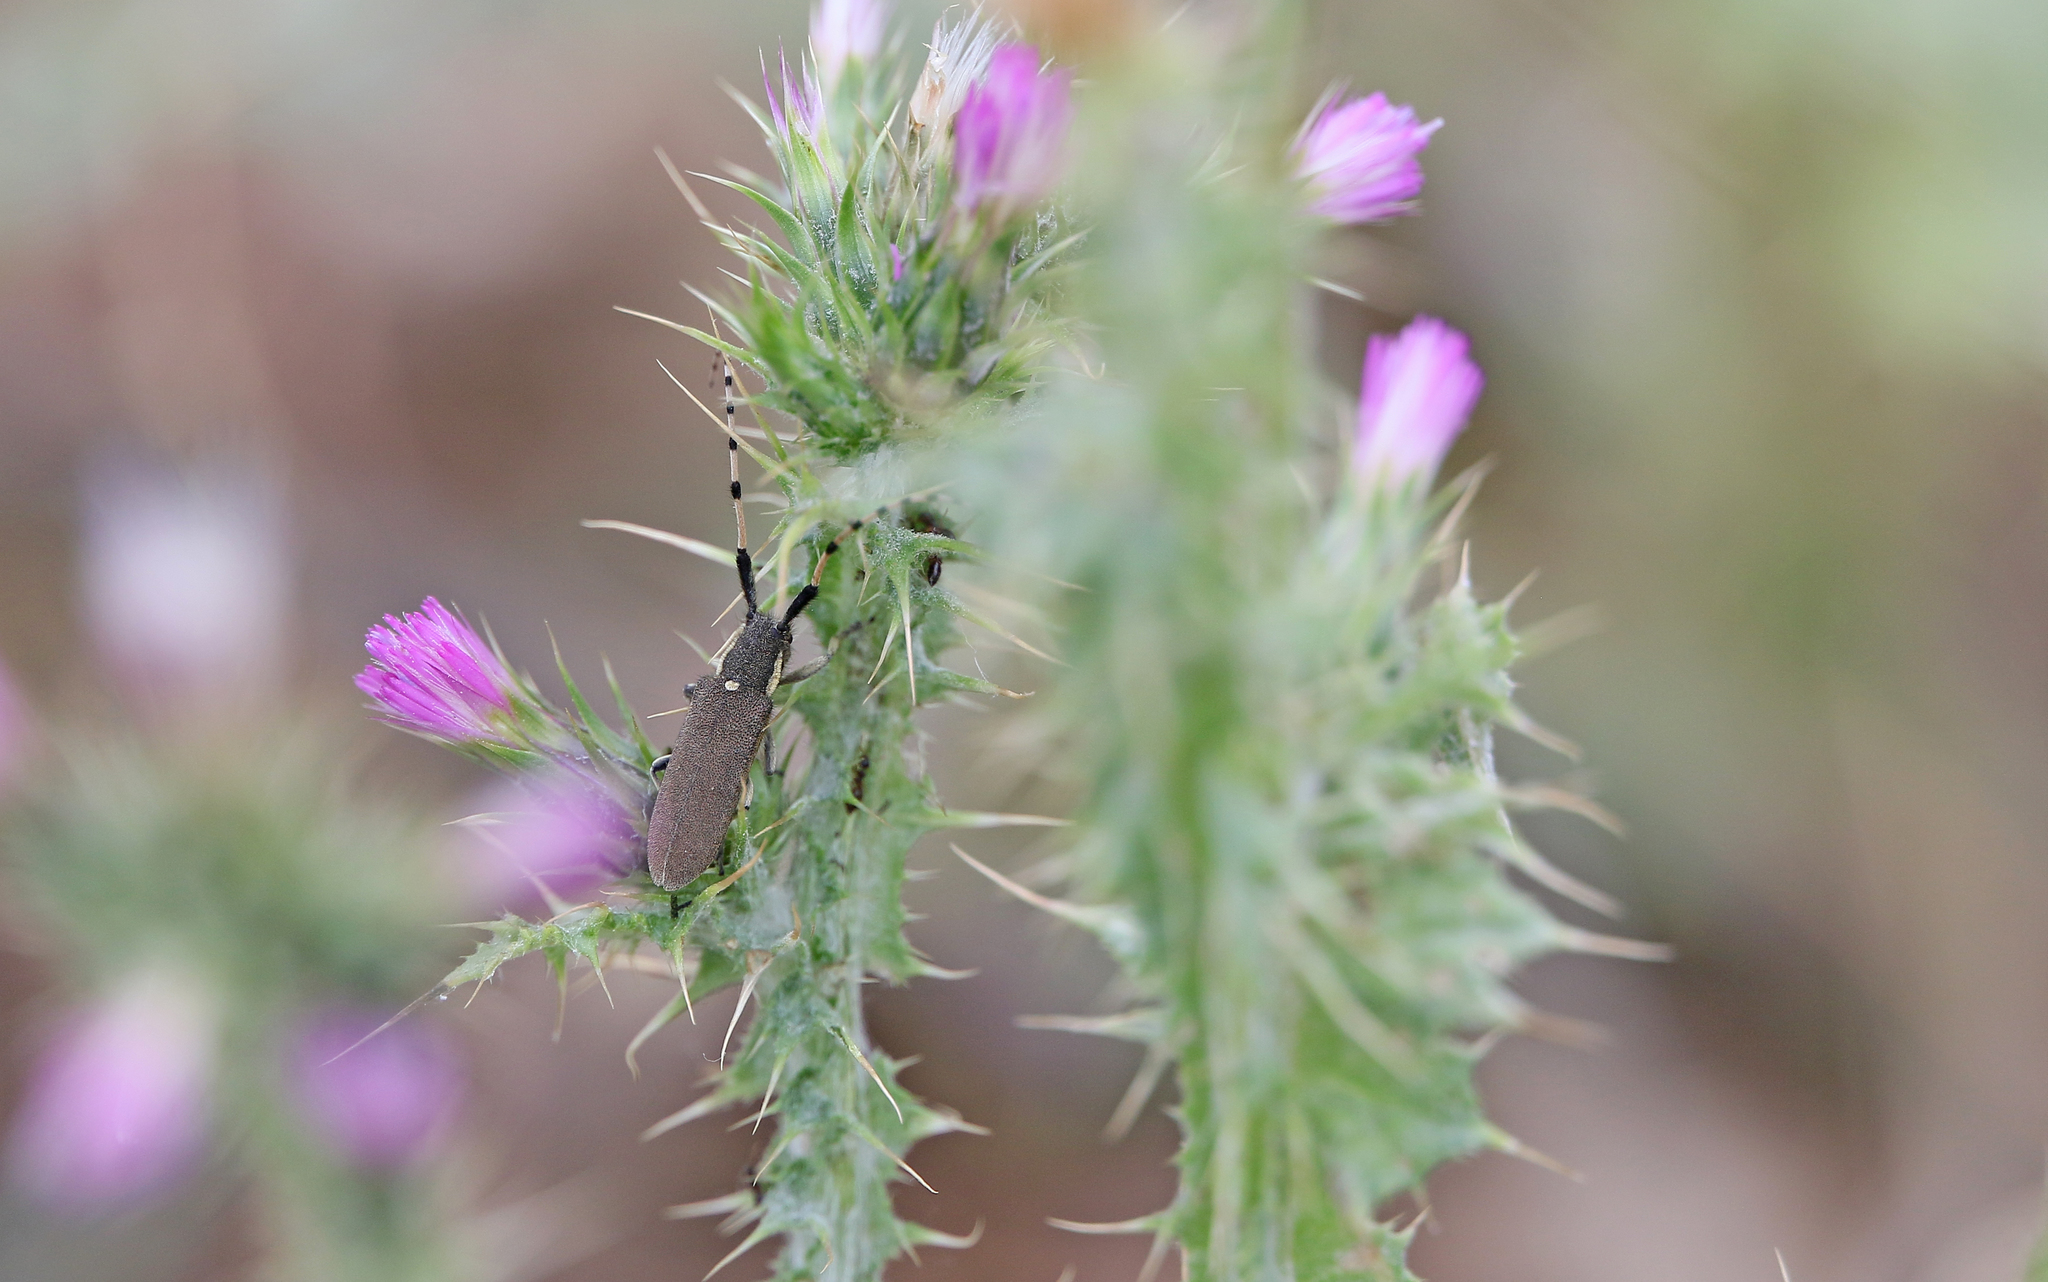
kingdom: Animalia
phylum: Arthropoda
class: Insecta
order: Coleoptera
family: Cerambycidae
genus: Agapanthia
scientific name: Agapanthia annularis
